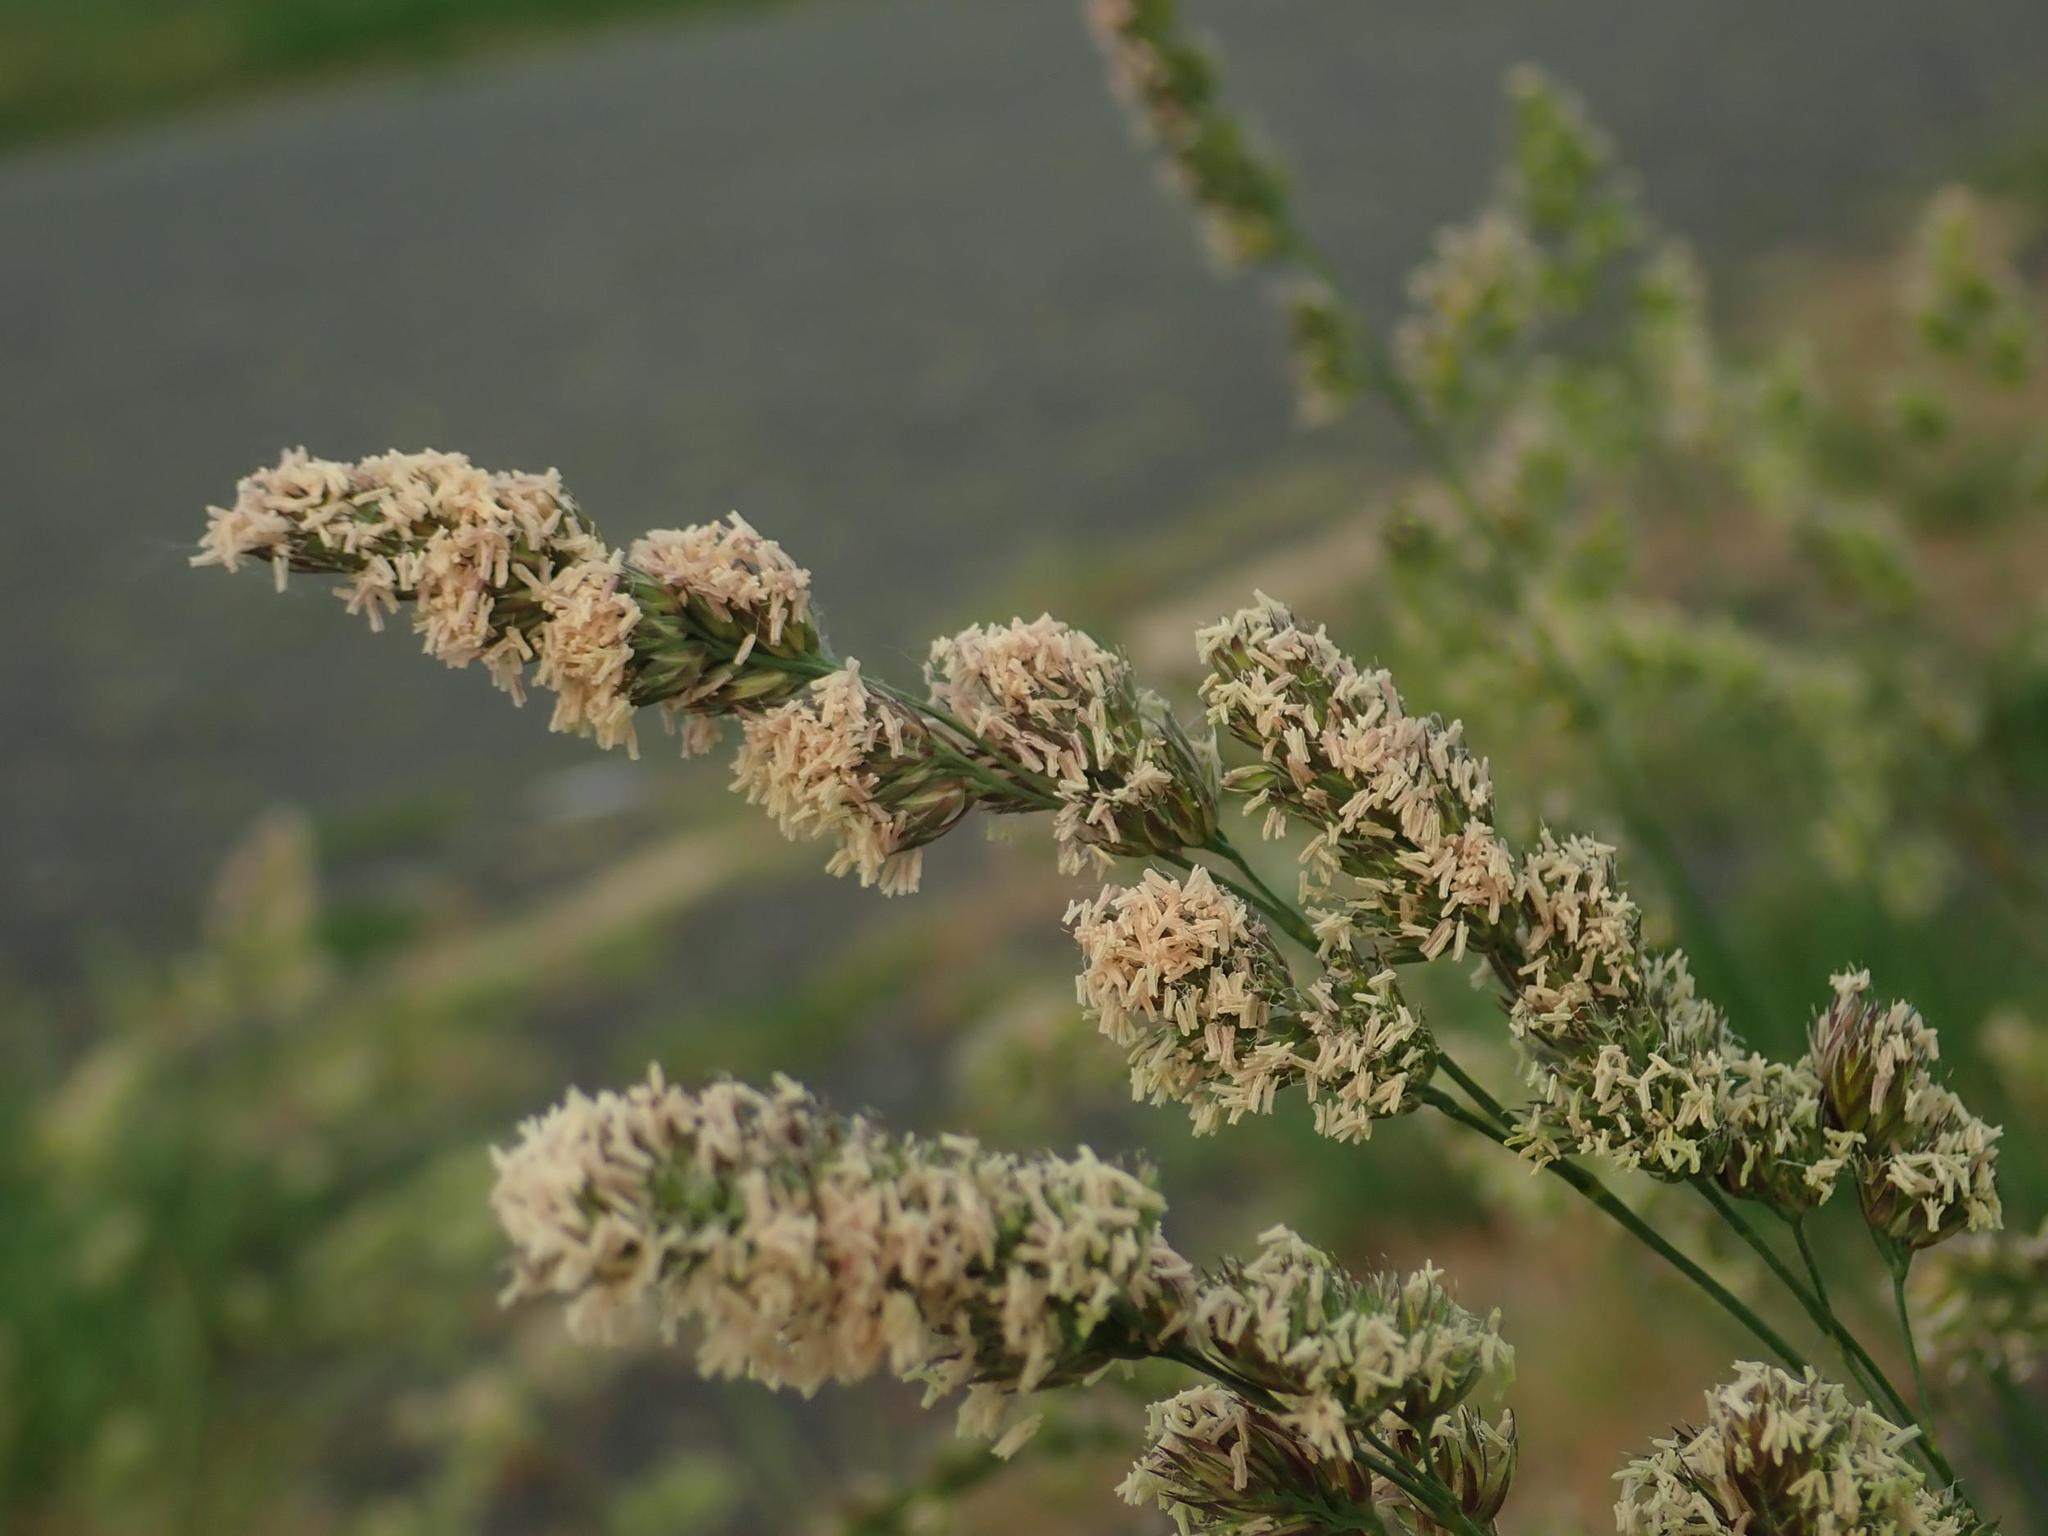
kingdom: Plantae
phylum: Tracheophyta
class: Liliopsida
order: Poales
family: Poaceae
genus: Dactylis
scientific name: Dactylis glomerata
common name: Orchardgrass
